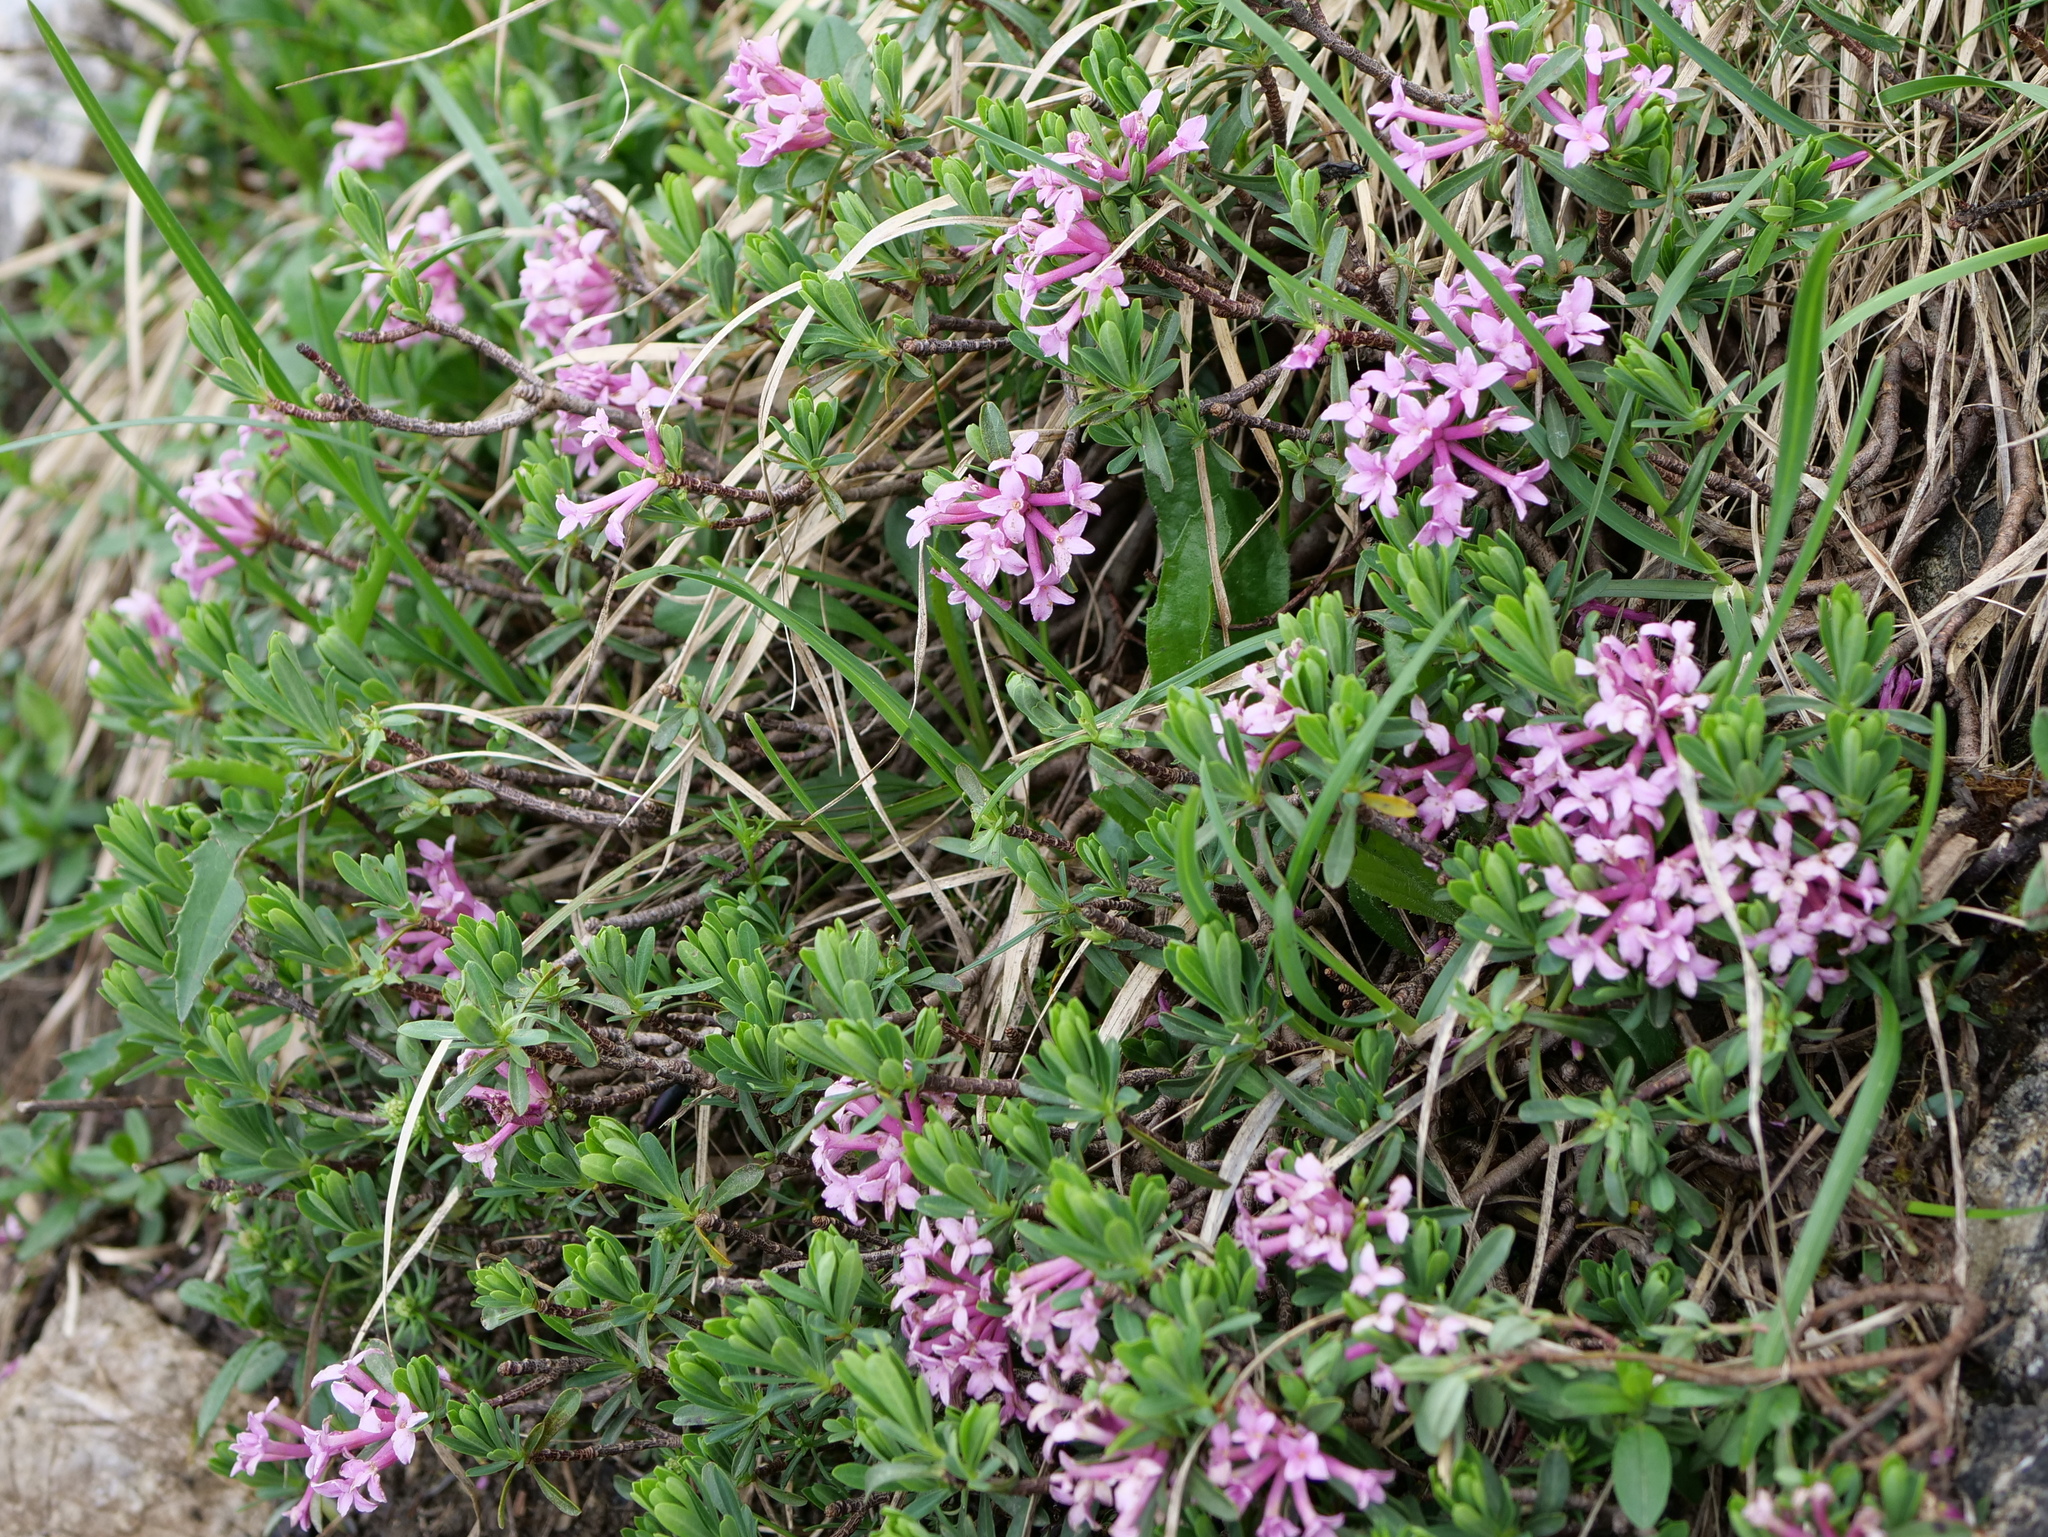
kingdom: Plantae
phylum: Tracheophyta
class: Magnoliopsida
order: Malvales
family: Thymelaeaceae
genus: Daphne
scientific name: Daphne striata
